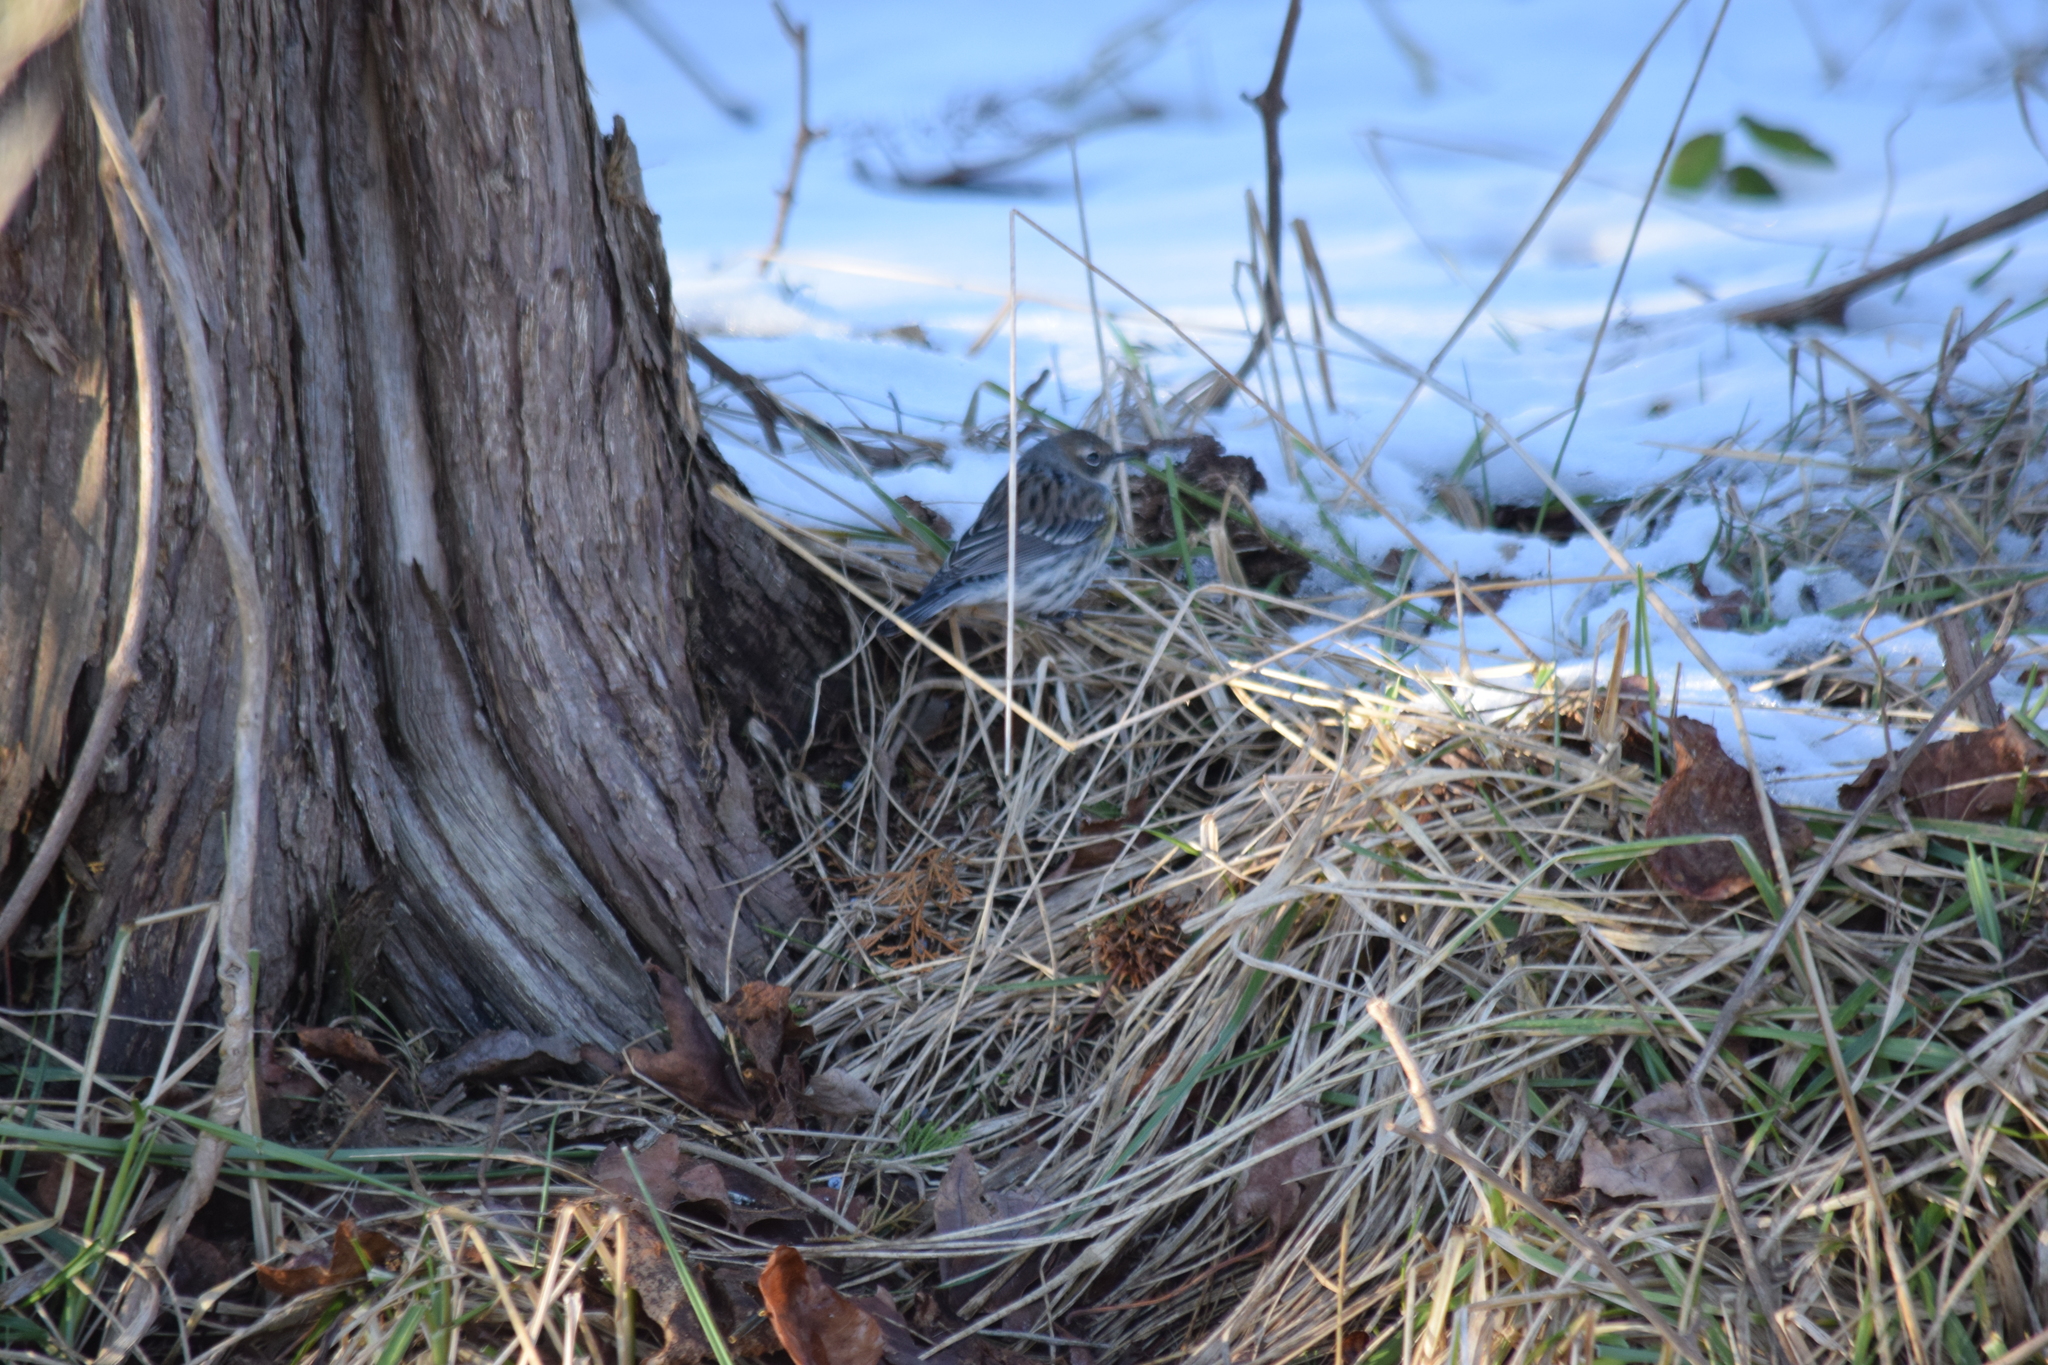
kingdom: Animalia
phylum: Chordata
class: Aves
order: Passeriformes
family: Parulidae
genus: Setophaga
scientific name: Setophaga coronata
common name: Myrtle warbler
